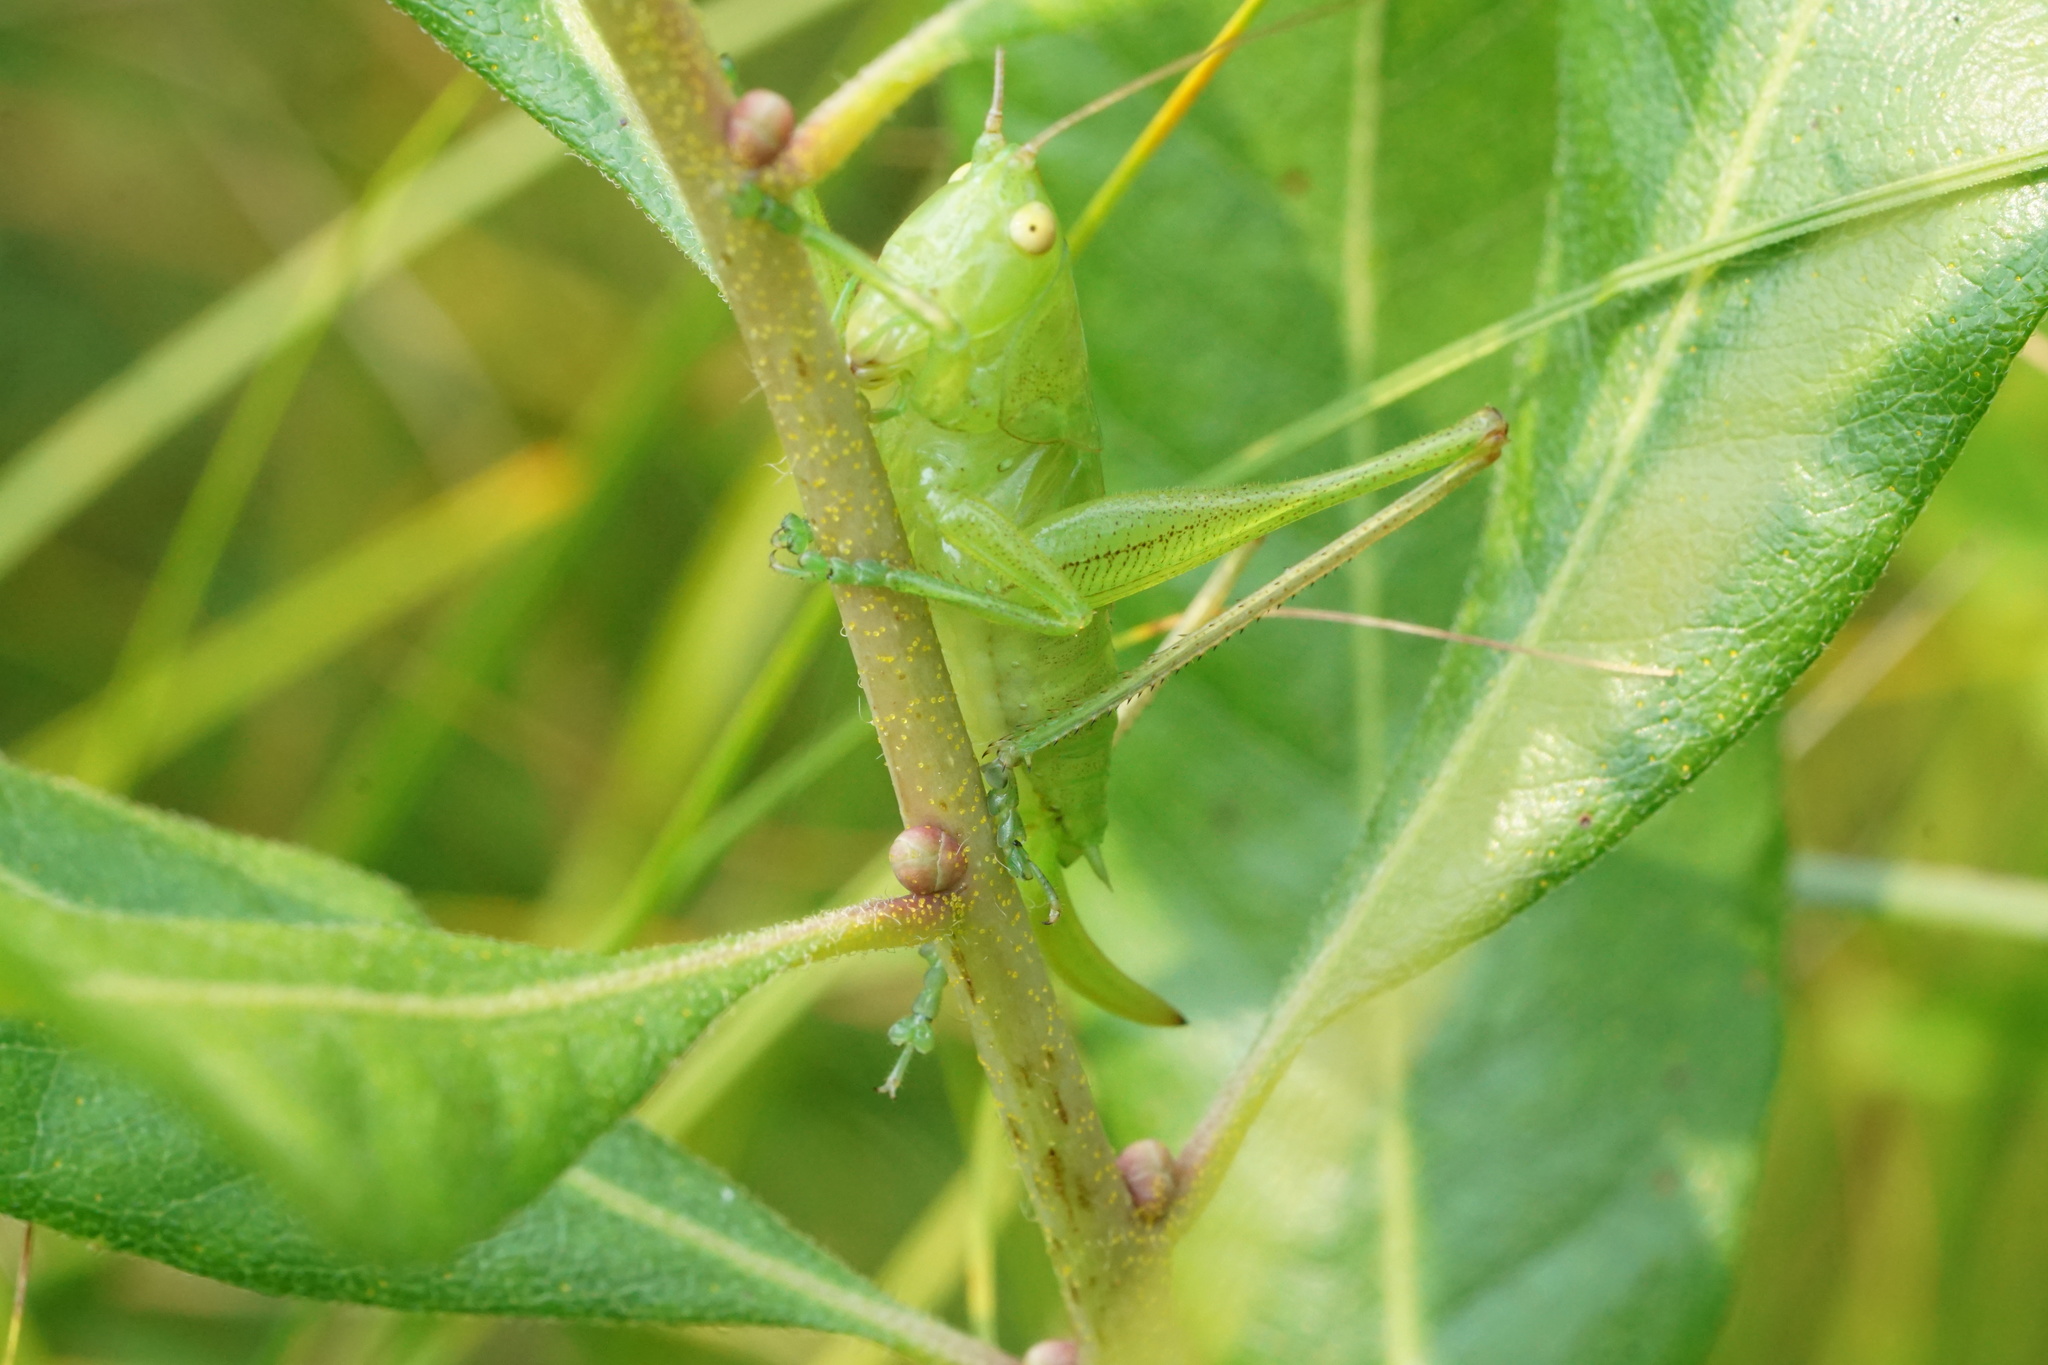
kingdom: Animalia
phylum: Arthropoda
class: Insecta
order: Orthoptera
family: Tettigoniidae
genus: Orchelimum
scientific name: Orchelimum vulgare
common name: Common meadow katydid
